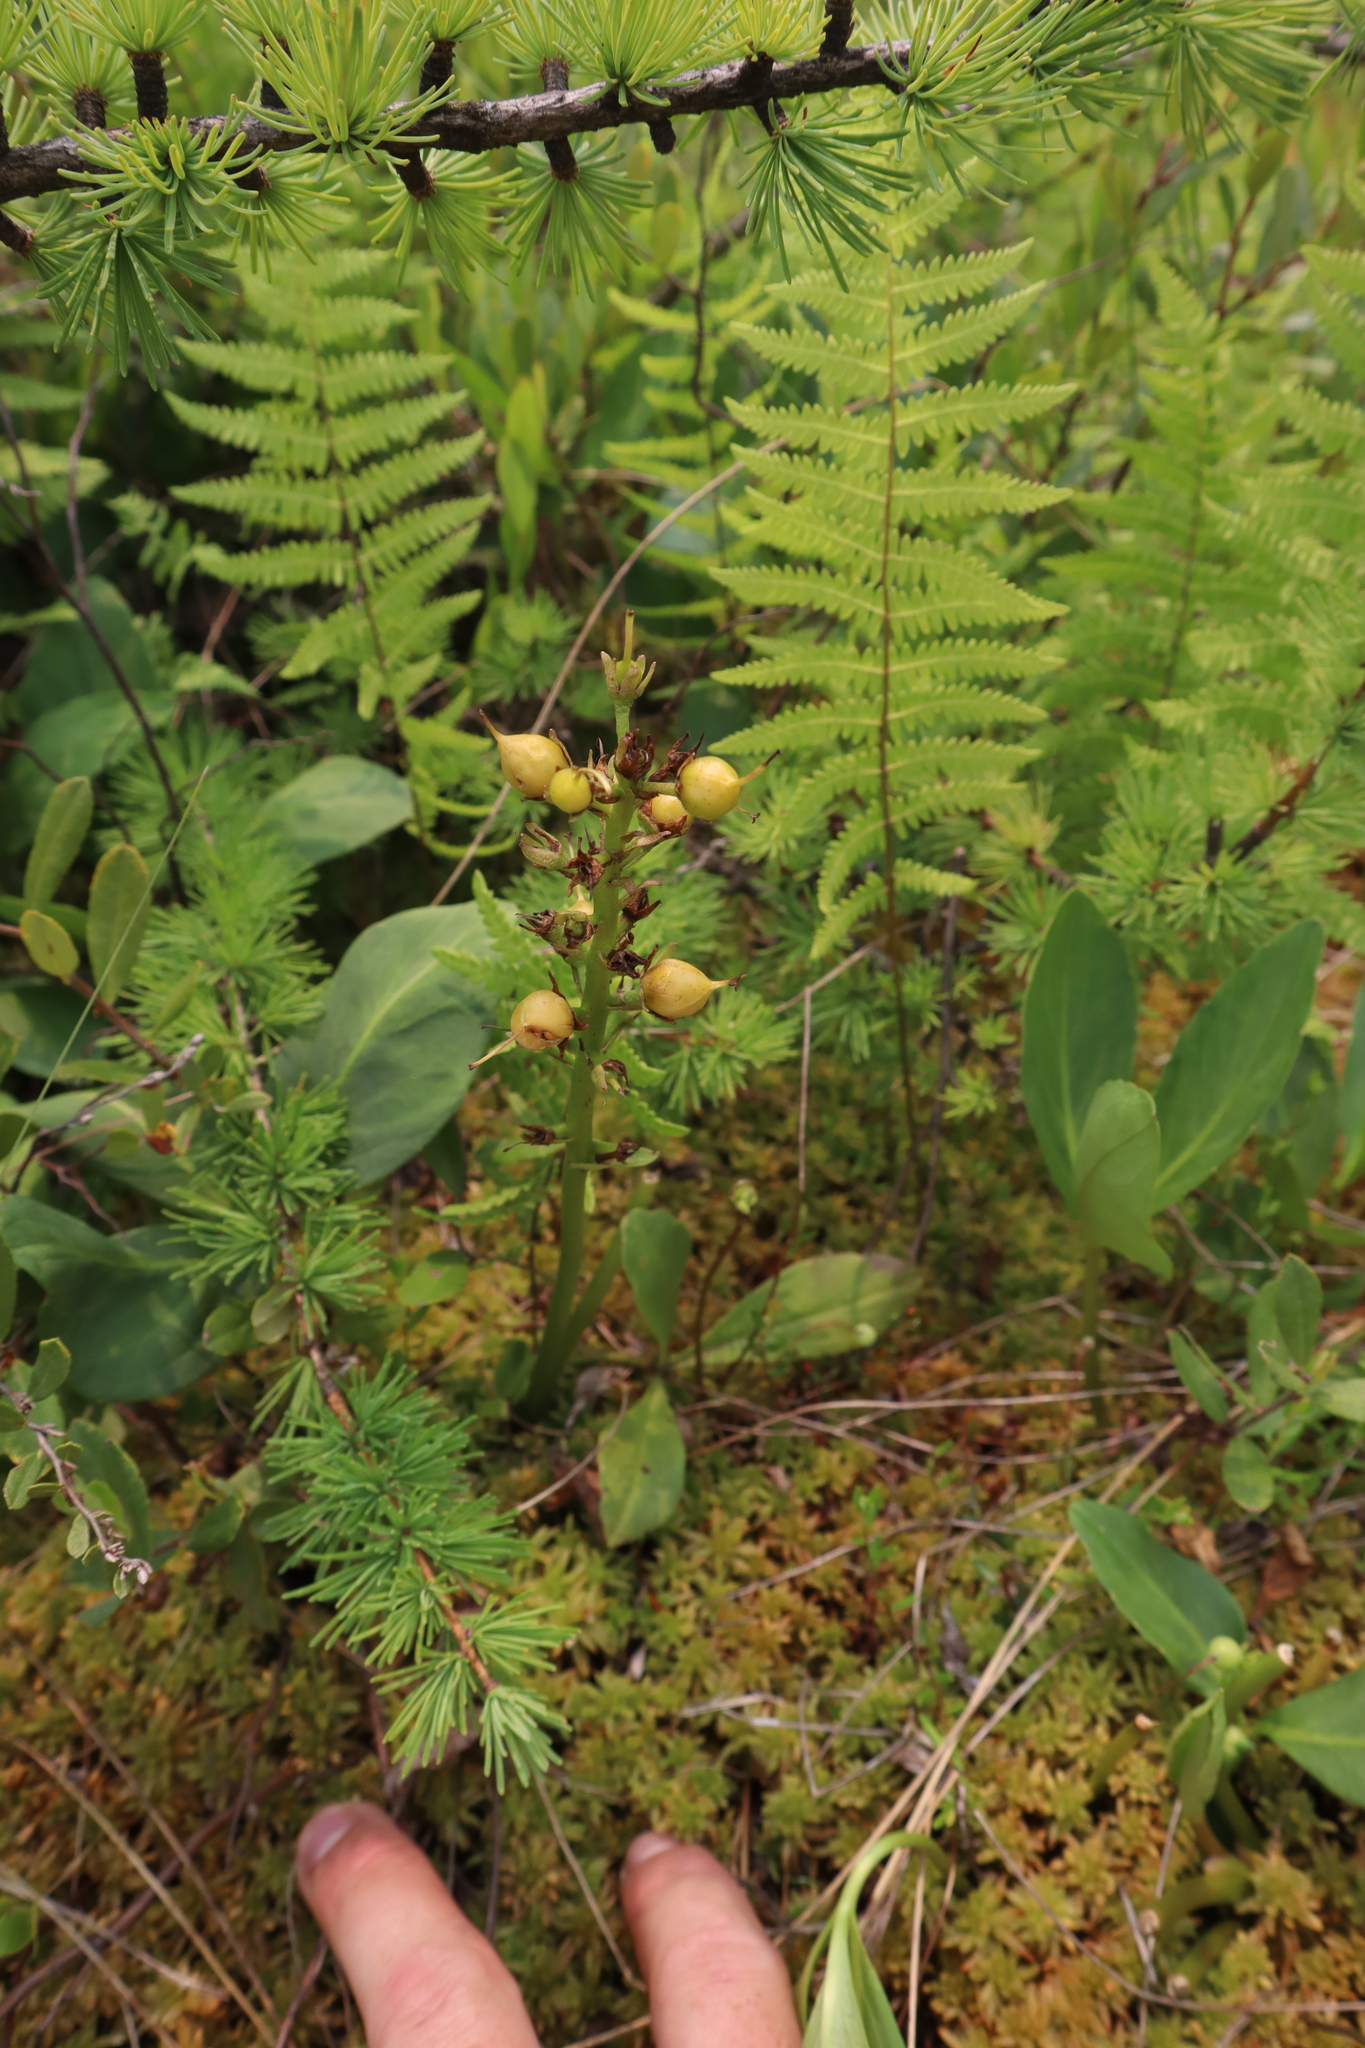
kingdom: Plantae
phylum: Tracheophyta
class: Magnoliopsida
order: Asterales
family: Menyanthaceae
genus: Menyanthes
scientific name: Menyanthes trifoliata
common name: Bogbean
